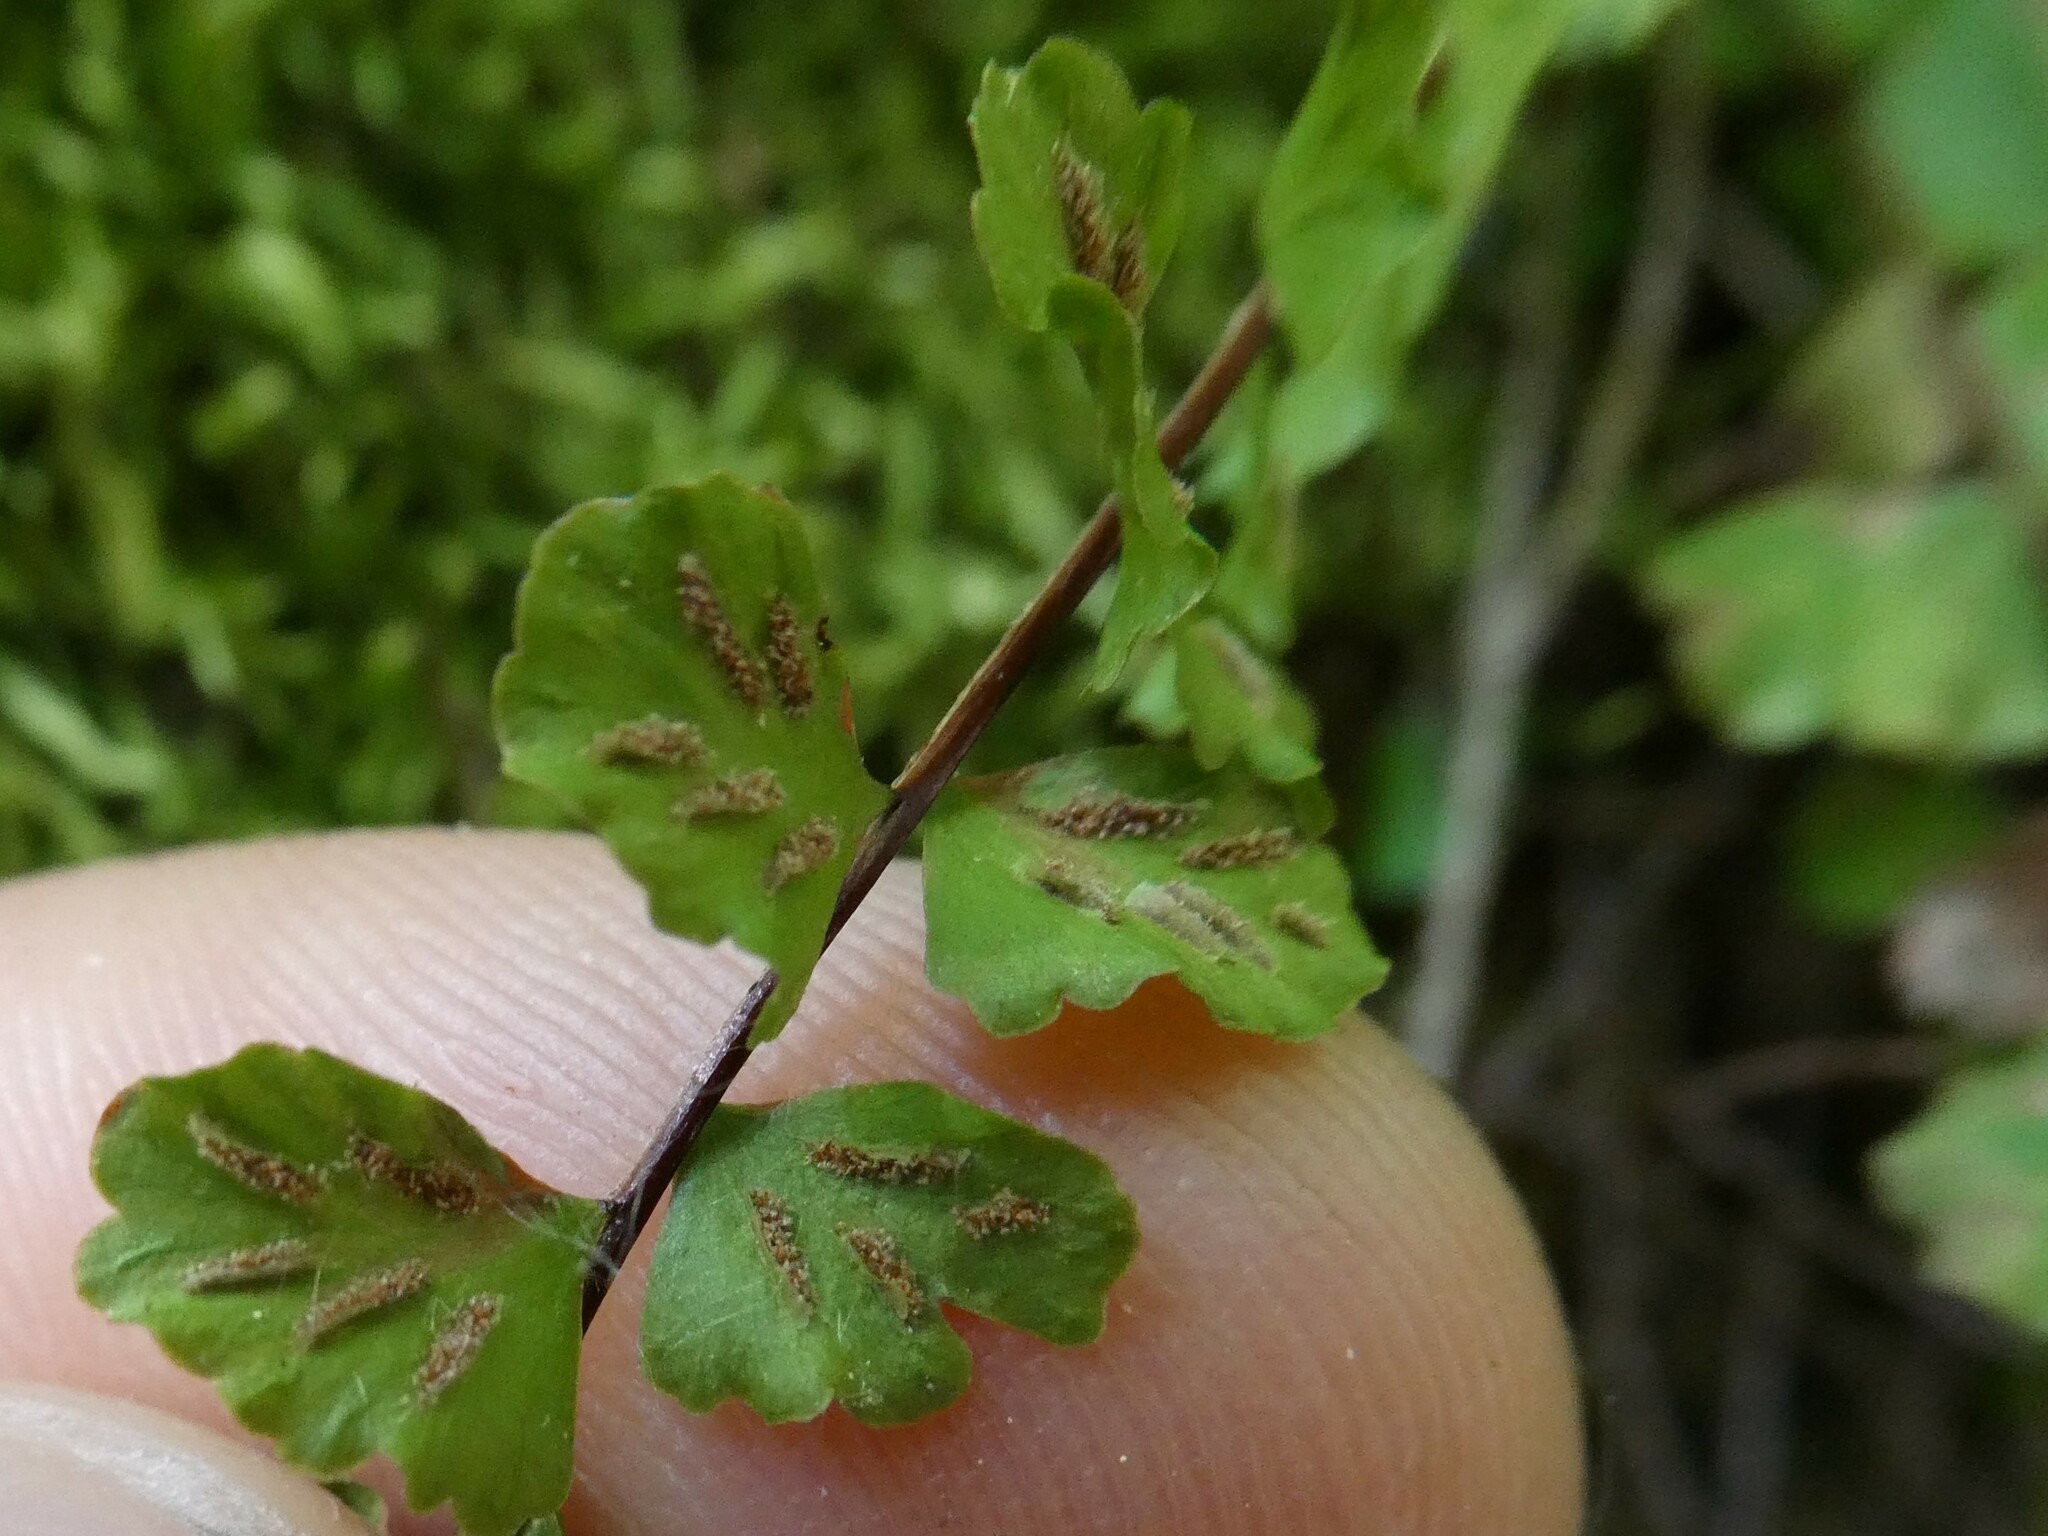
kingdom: Plantae
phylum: Tracheophyta
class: Polypodiopsida
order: Polypodiales
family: Aspleniaceae
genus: Asplenium
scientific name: Asplenium trichomanes
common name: Maidenhair spleenwort
